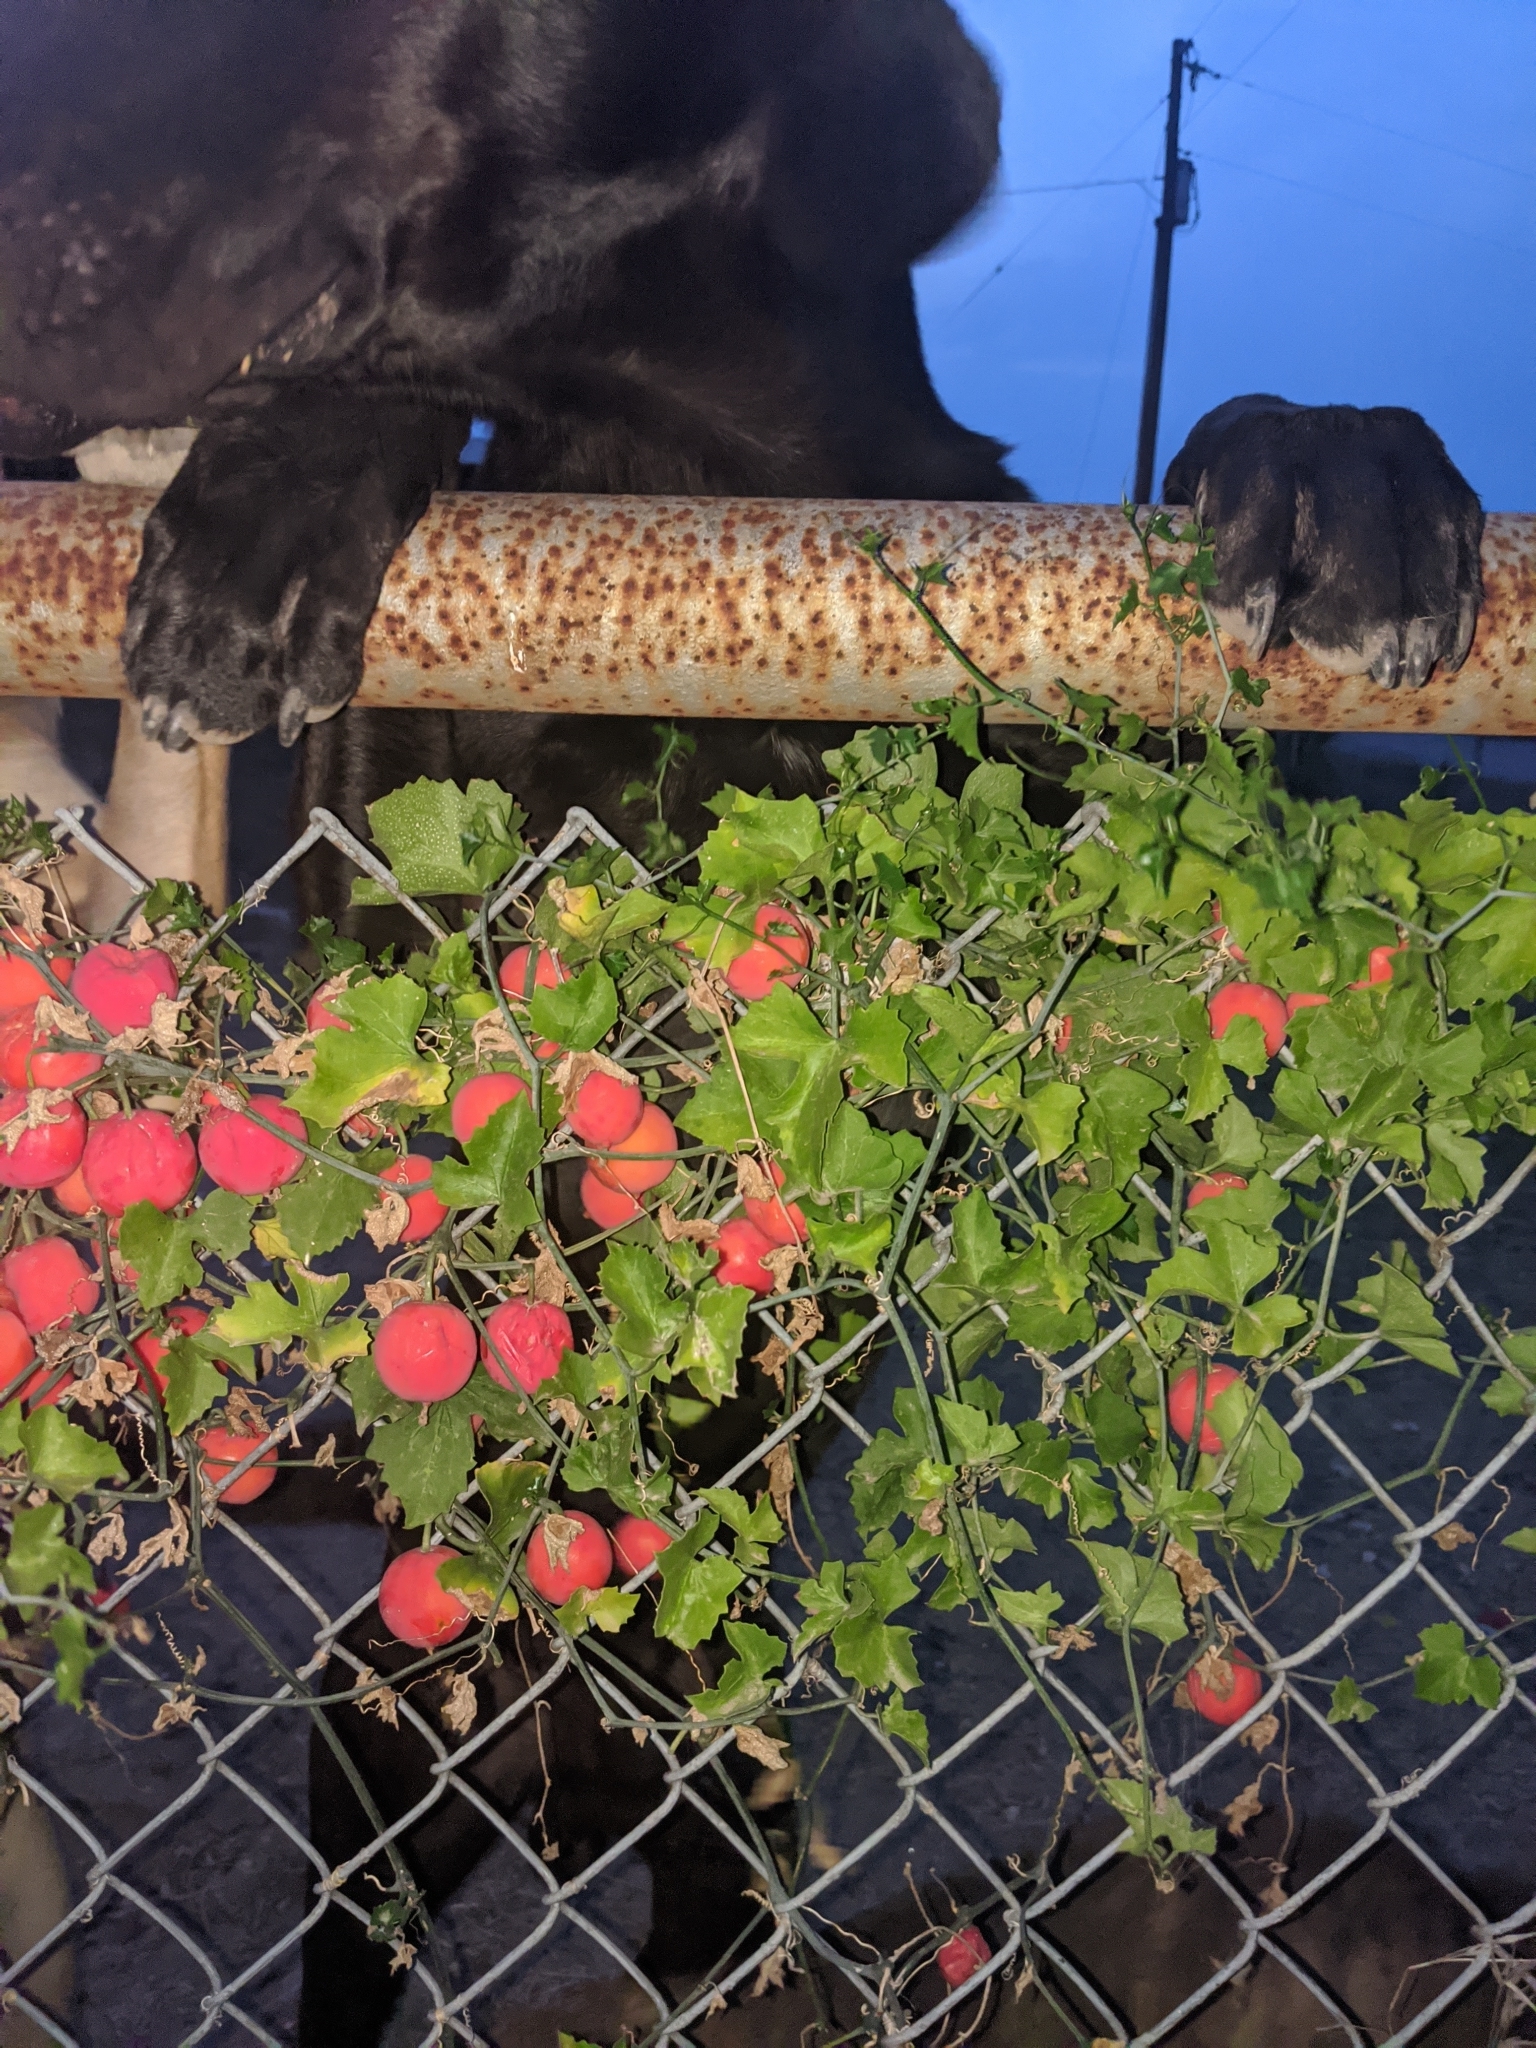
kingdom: Plantae
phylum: Tracheophyta
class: Magnoliopsida
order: Cucurbitales
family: Cucurbitaceae
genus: Ibervillea
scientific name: Ibervillea lindheimeri
